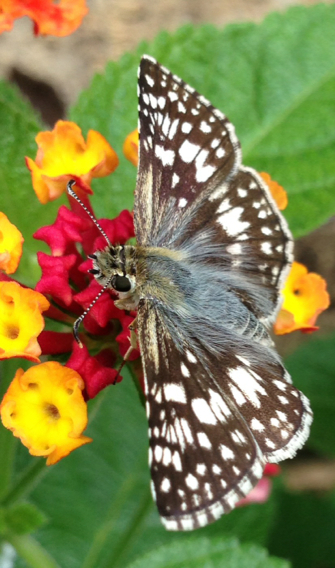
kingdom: Animalia
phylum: Arthropoda
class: Insecta
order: Lepidoptera
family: Hesperiidae
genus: Burnsius
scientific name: Burnsius
